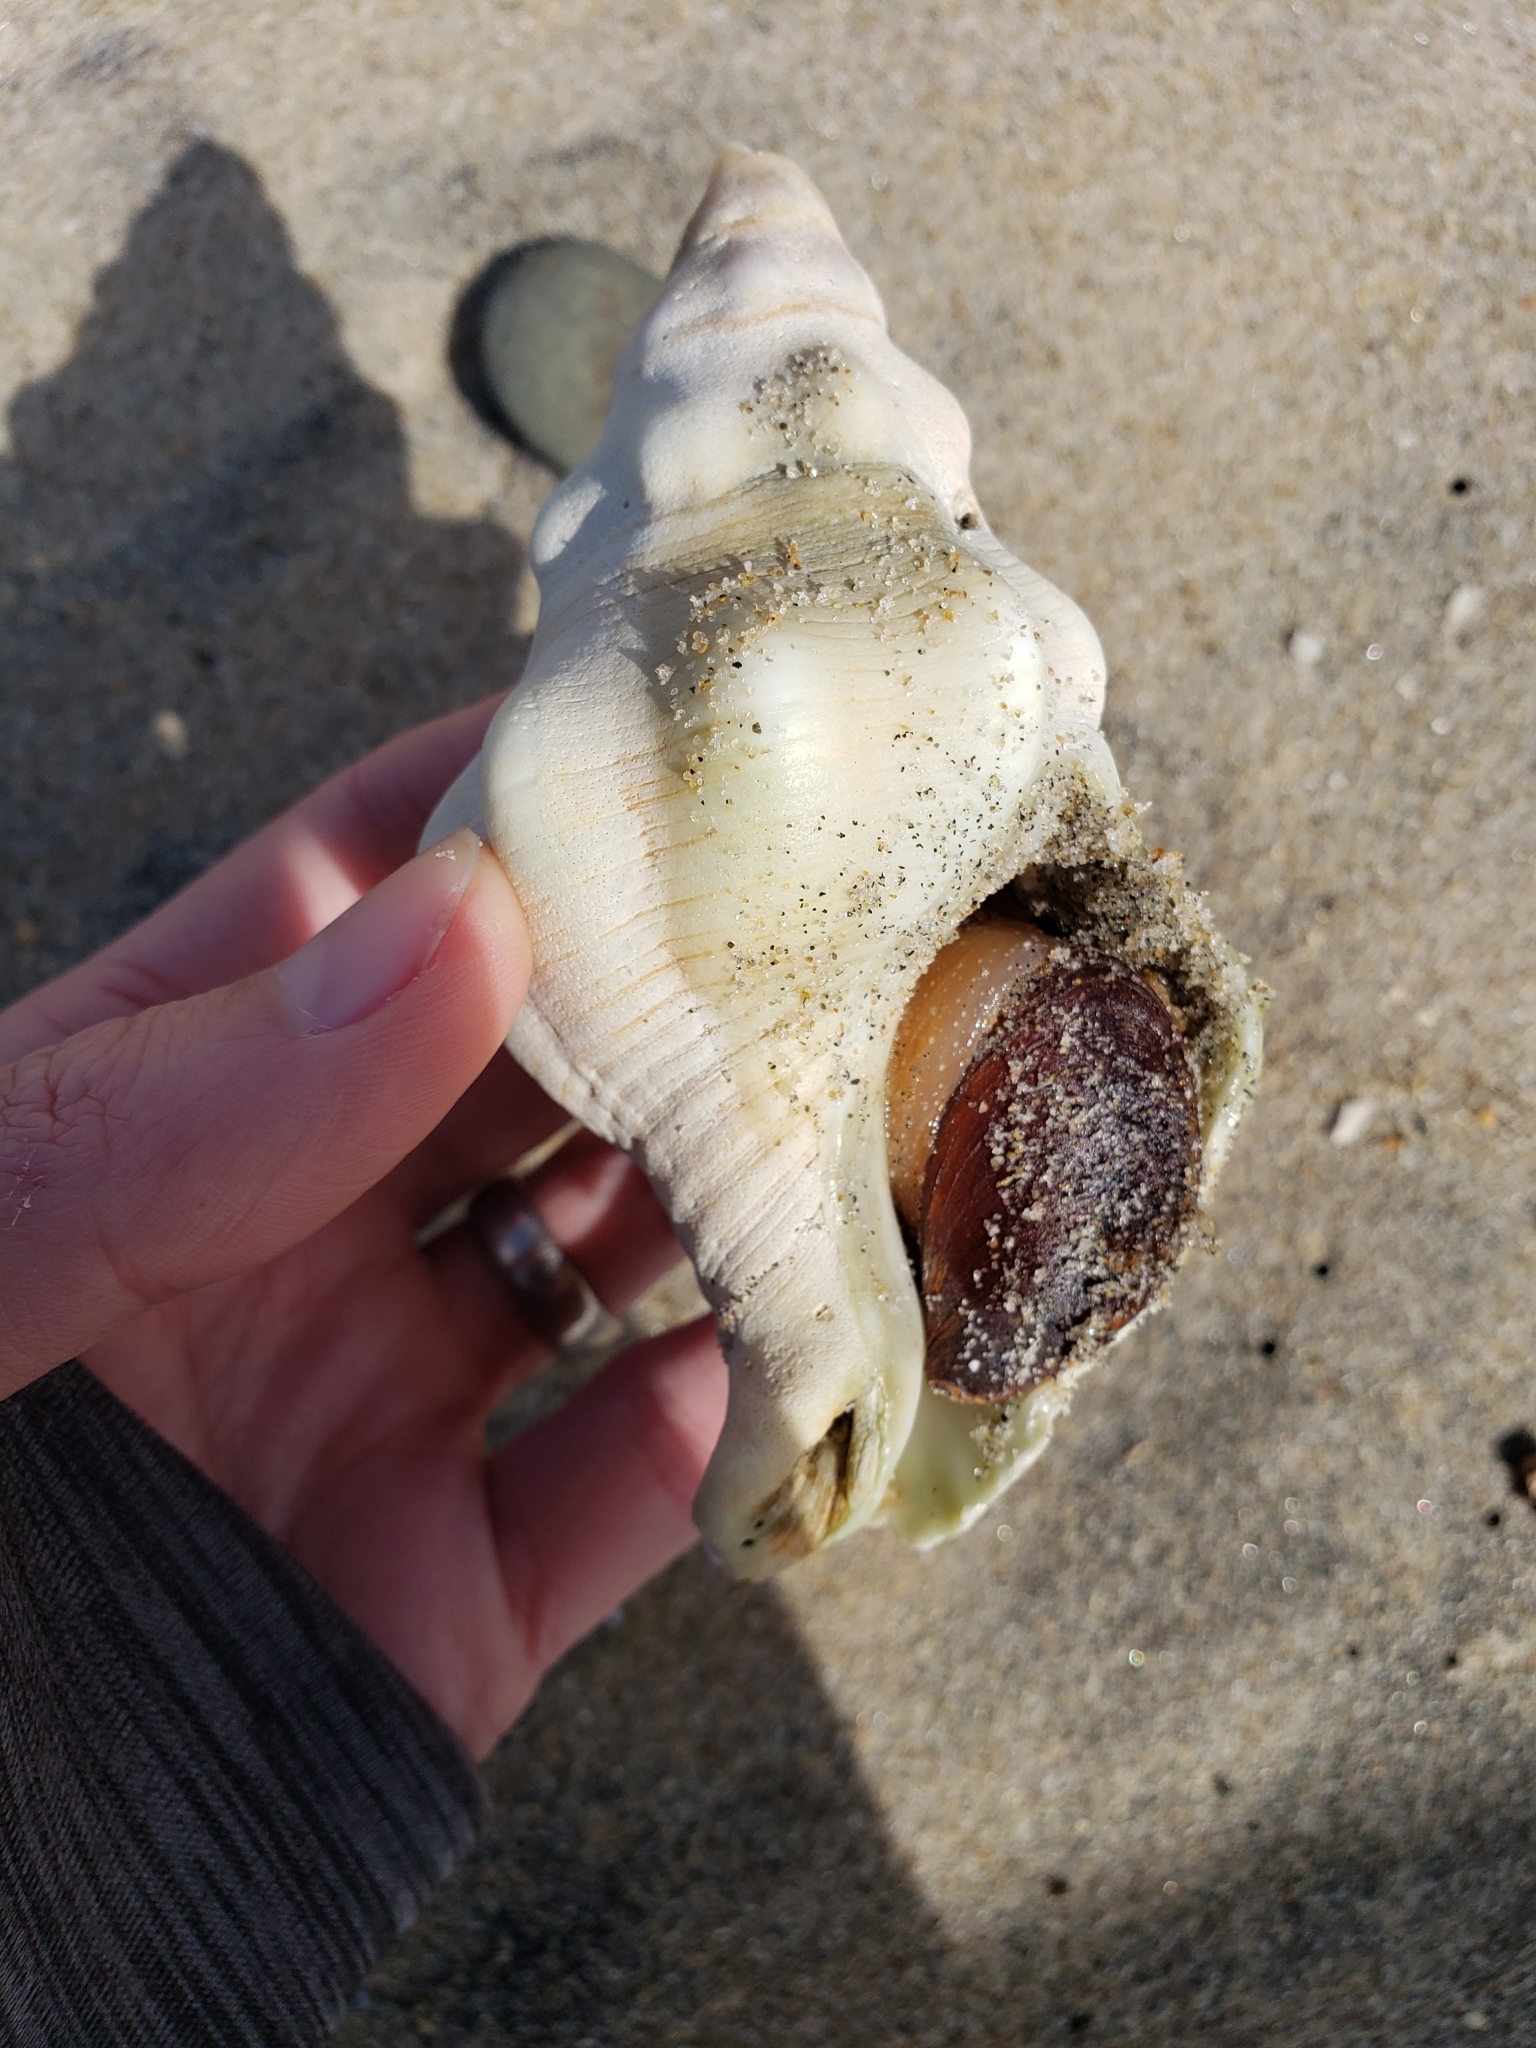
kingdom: Animalia
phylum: Mollusca
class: Gastropoda
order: Neogastropoda
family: Austrosiphonidae
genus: Kelletia
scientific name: Kelletia kelletii
